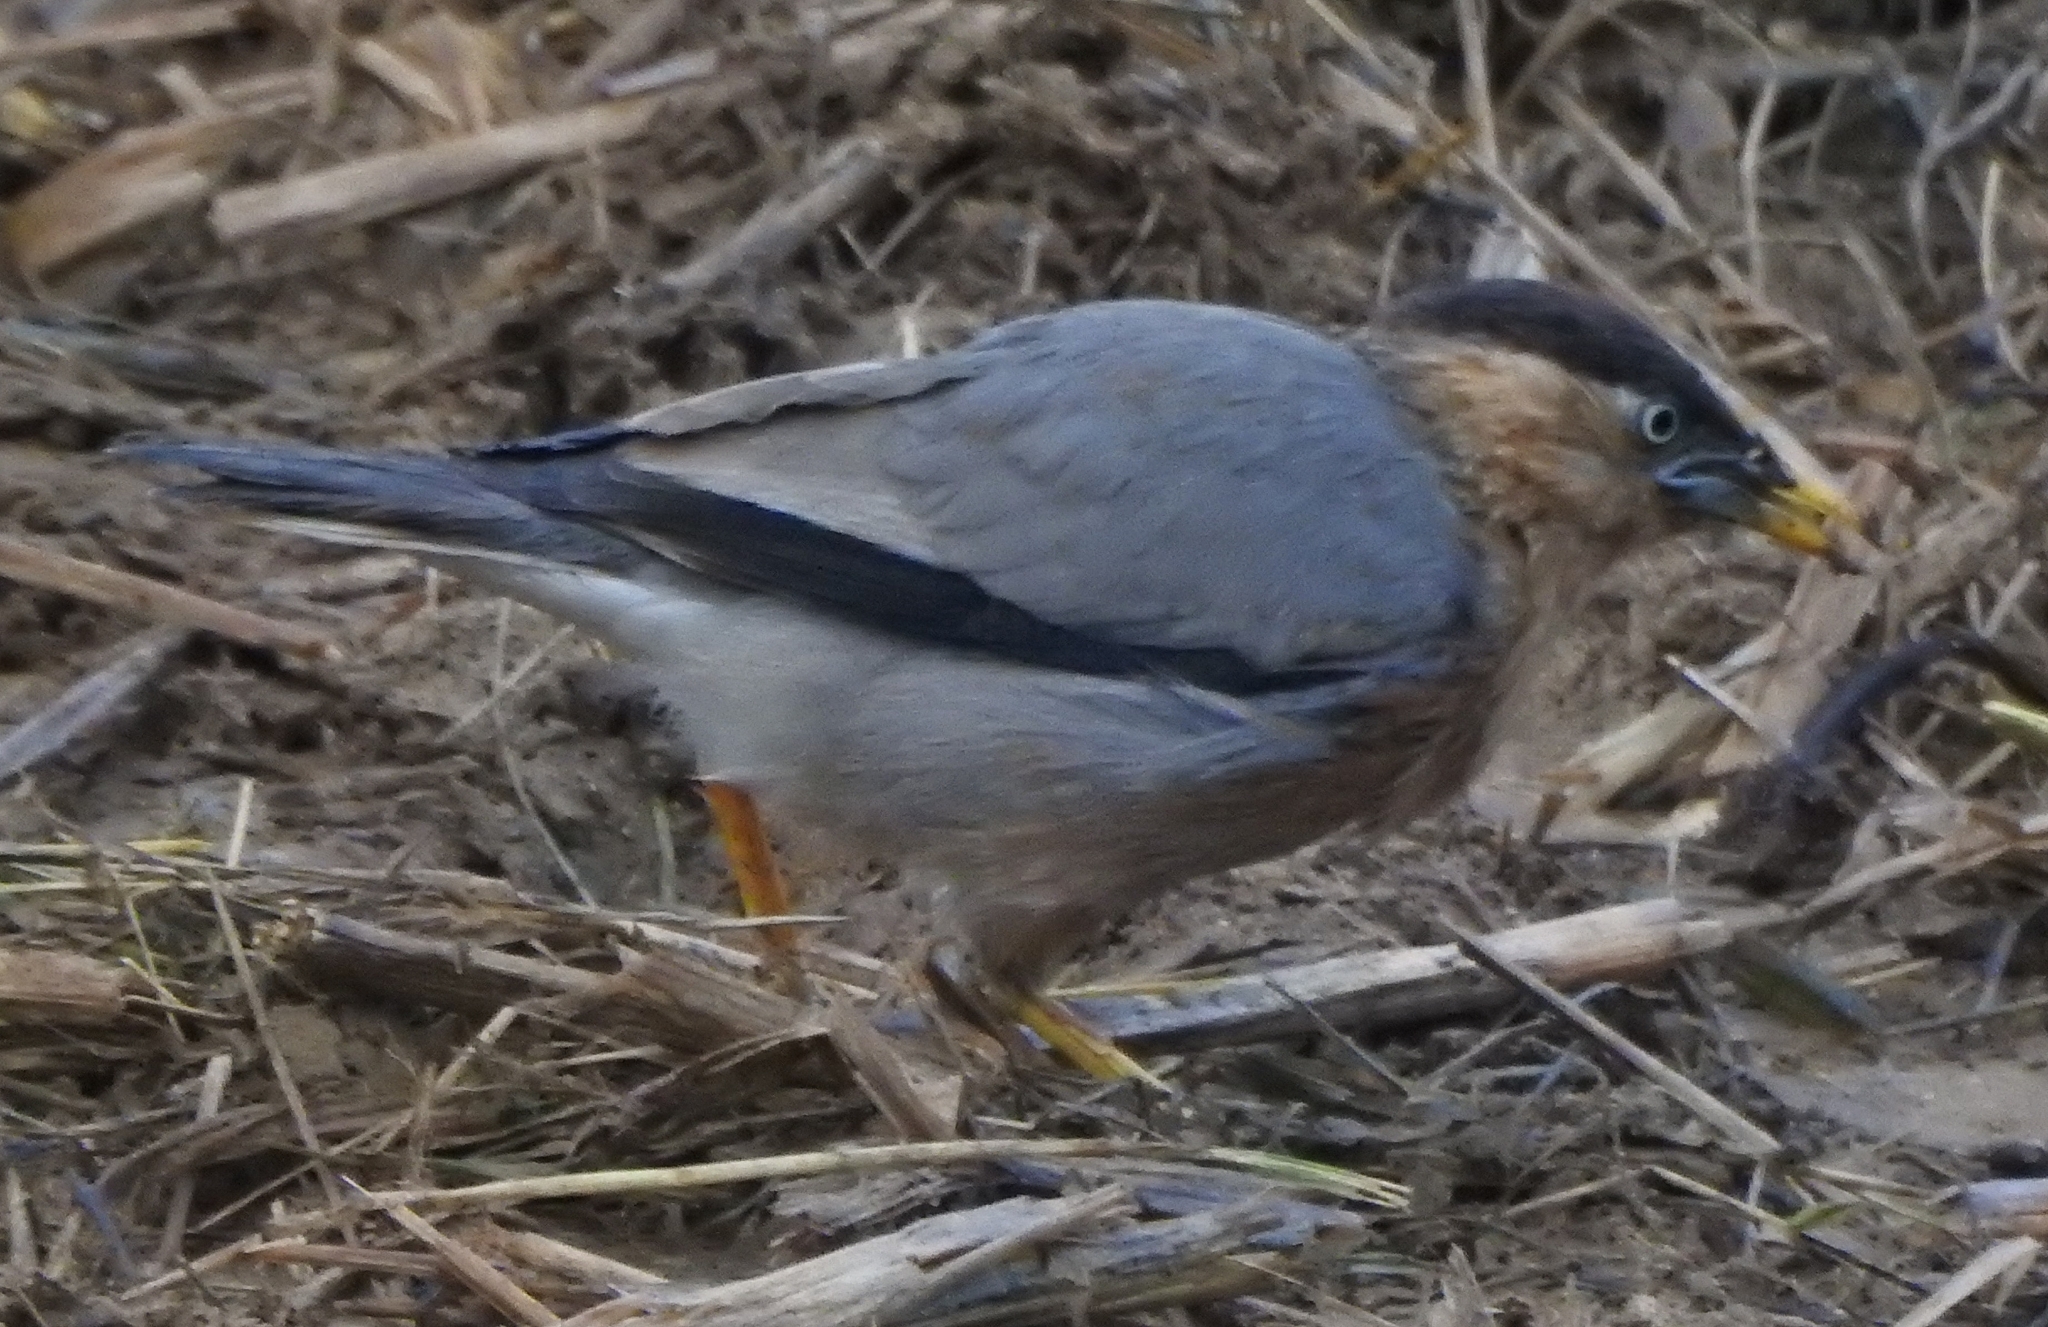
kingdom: Animalia
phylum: Chordata
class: Aves
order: Passeriformes
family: Sturnidae
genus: Sturnia
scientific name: Sturnia pagodarum
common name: Brahminy starling
